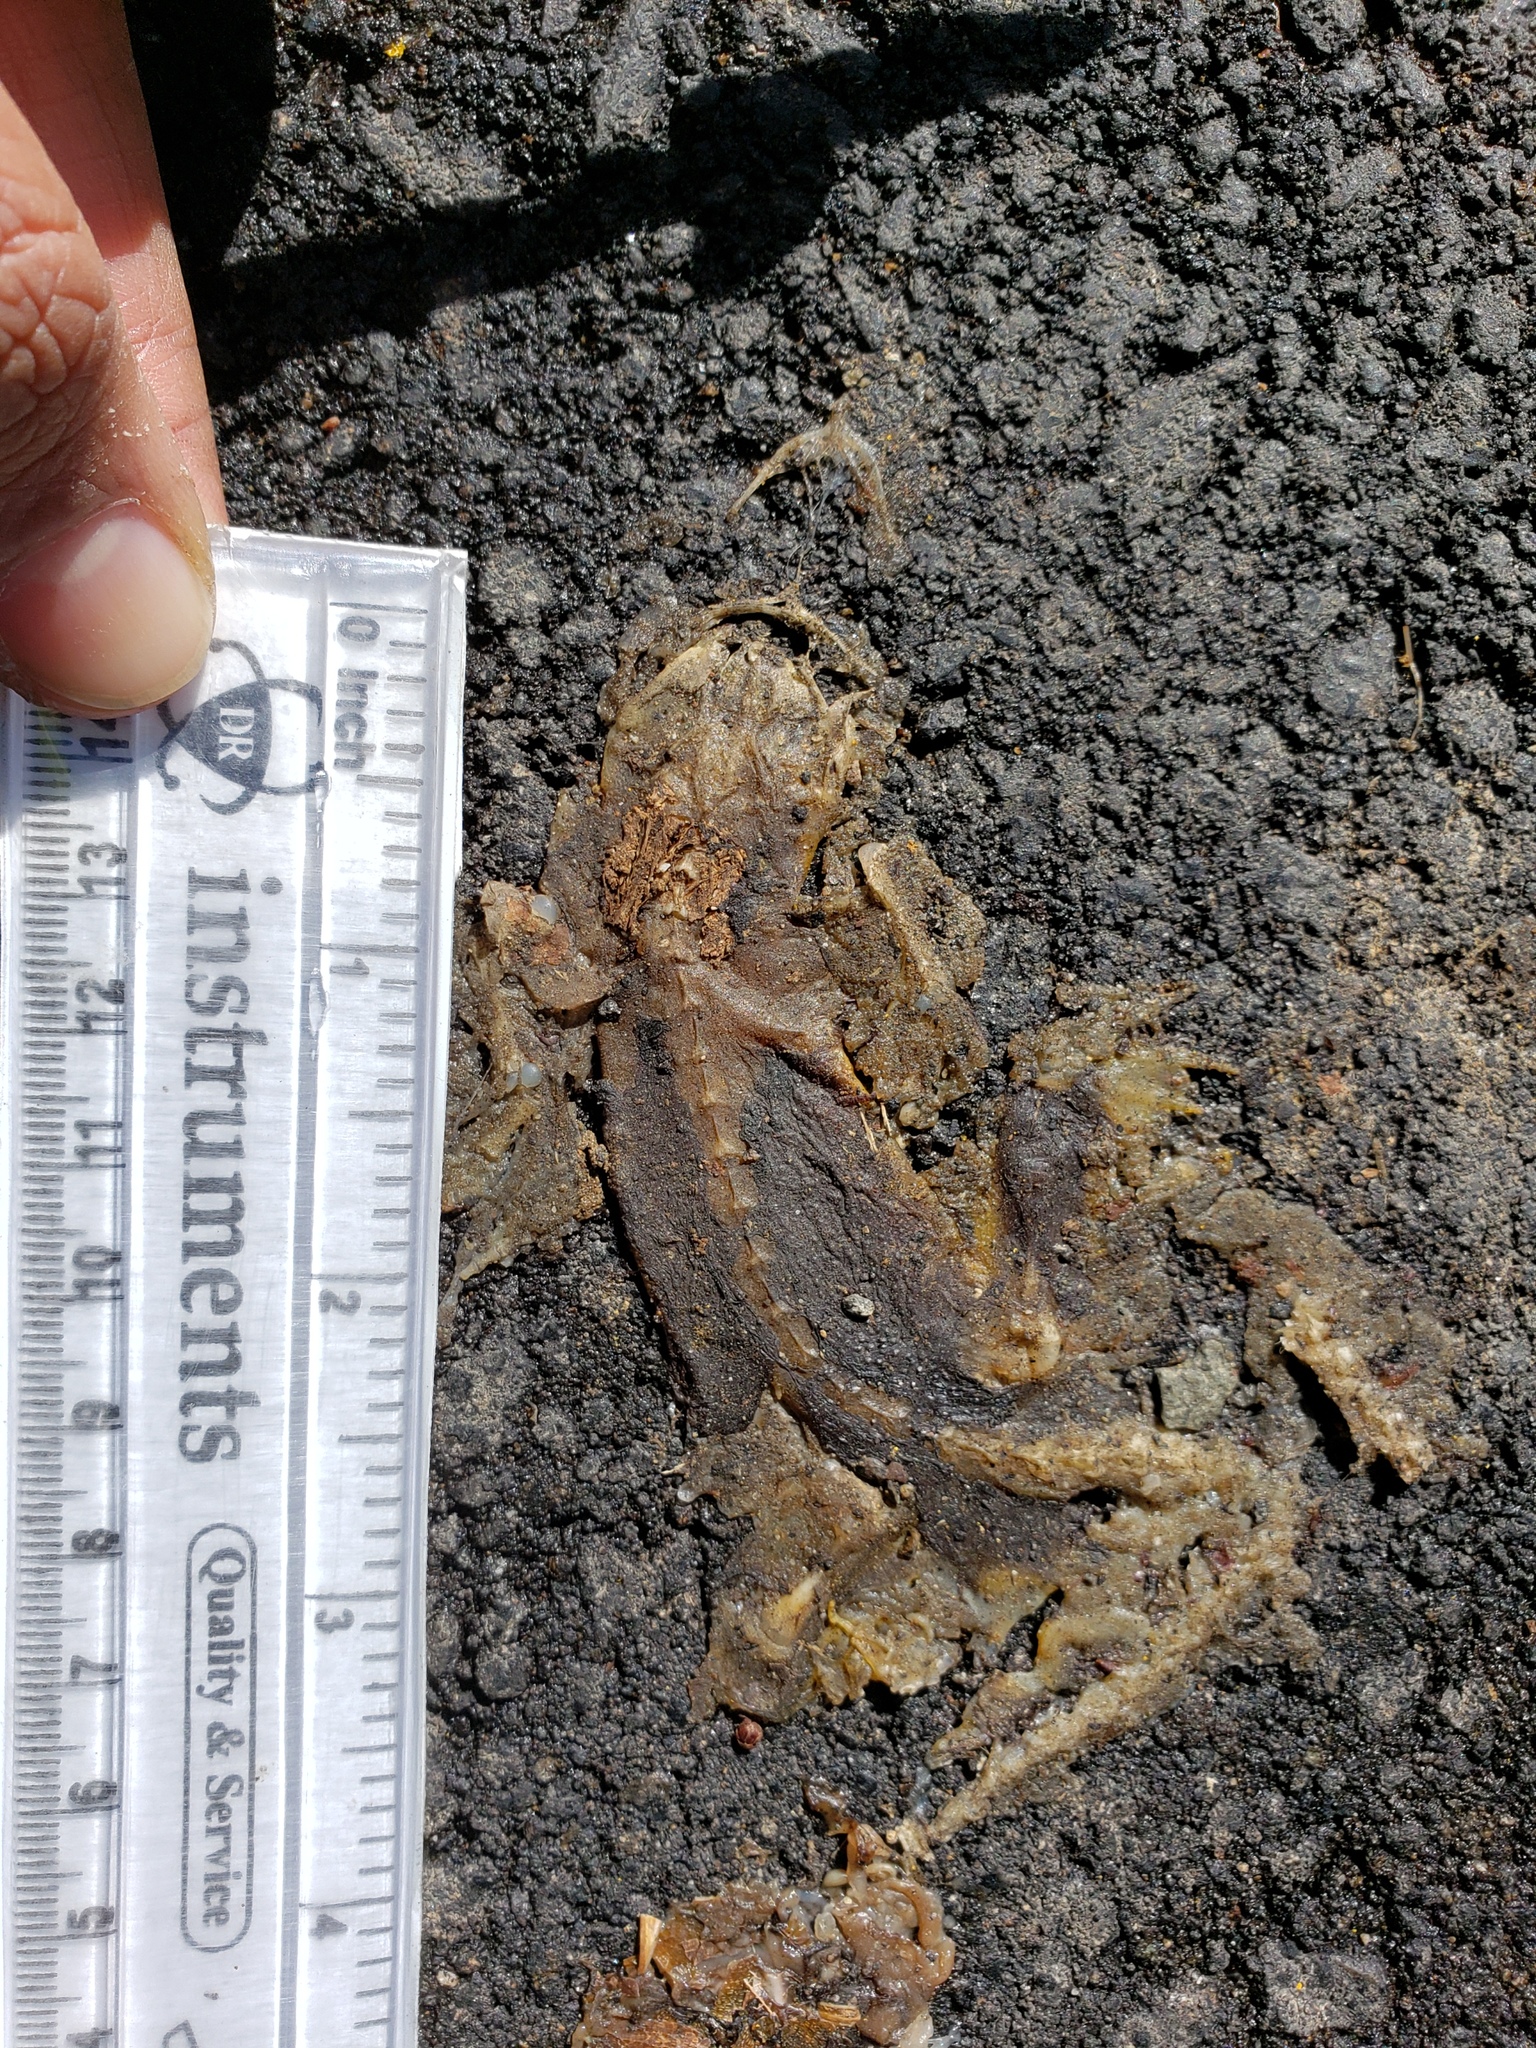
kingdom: Animalia
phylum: Chordata
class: Amphibia
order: Caudata
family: Salamandridae
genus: Taricha
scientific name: Taricha
